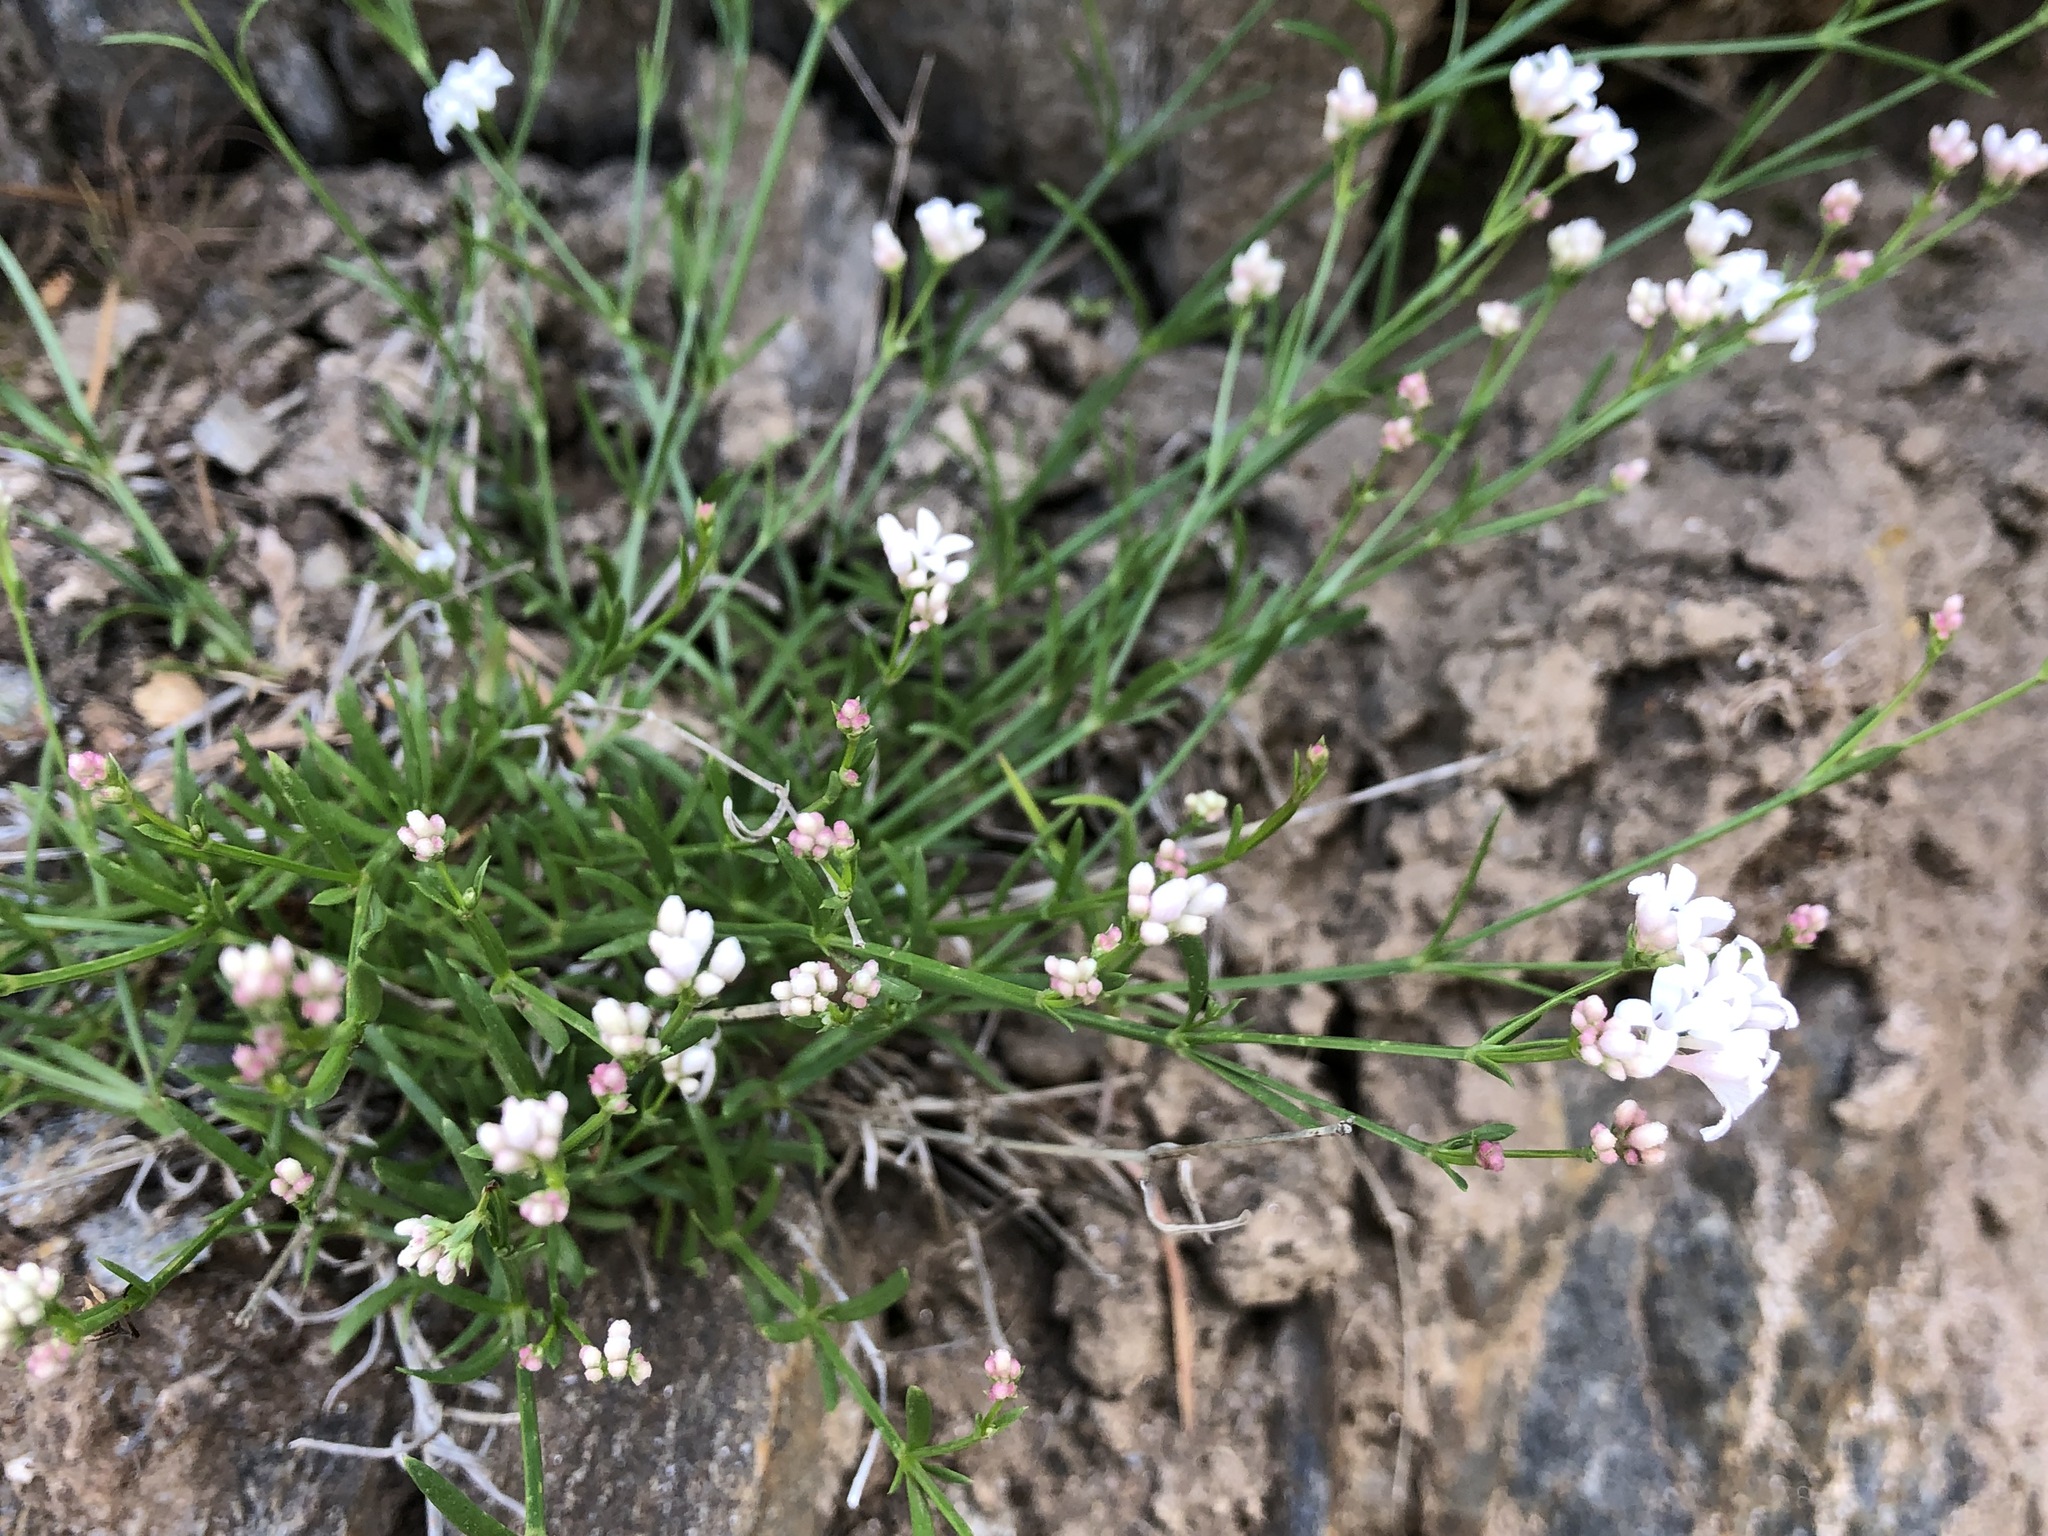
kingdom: Plantae
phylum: Tracheophyta
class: Magnoliopsida
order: Gentianales
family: Rubiaceae
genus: Cynanchica
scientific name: Cynanchica pyrenaica
